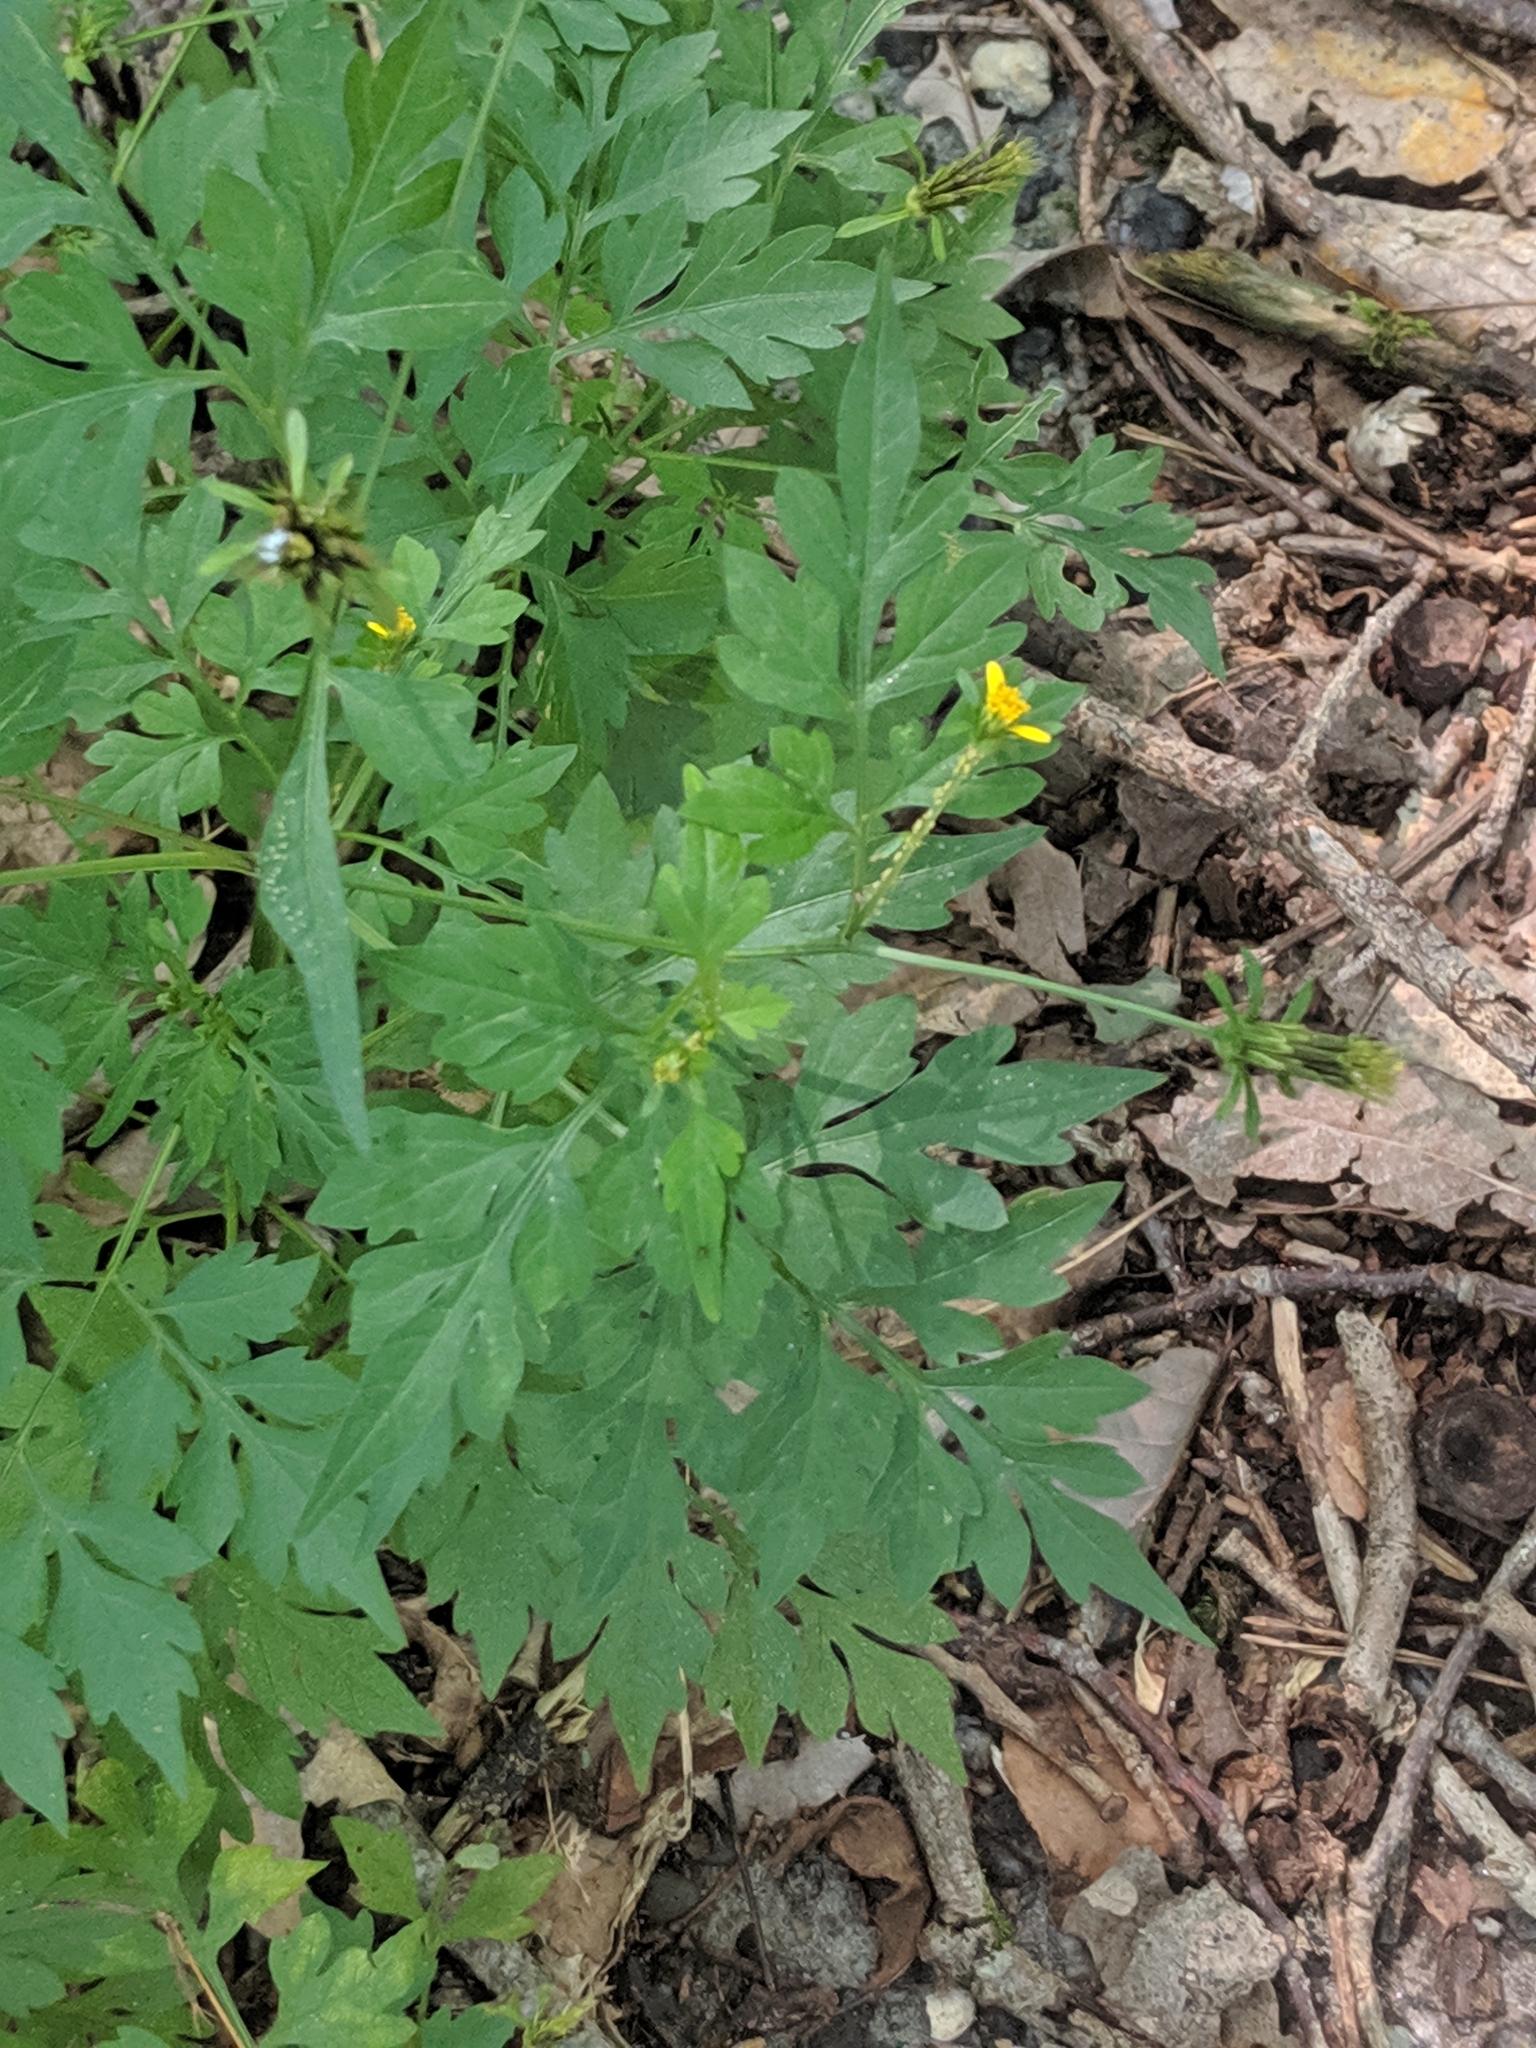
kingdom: Plantae
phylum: Tracheophyta
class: Magnoliopsida
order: Asterales
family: Asteraceae
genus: Bidens
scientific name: Bidens bipinnata
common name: Spanish-needles
